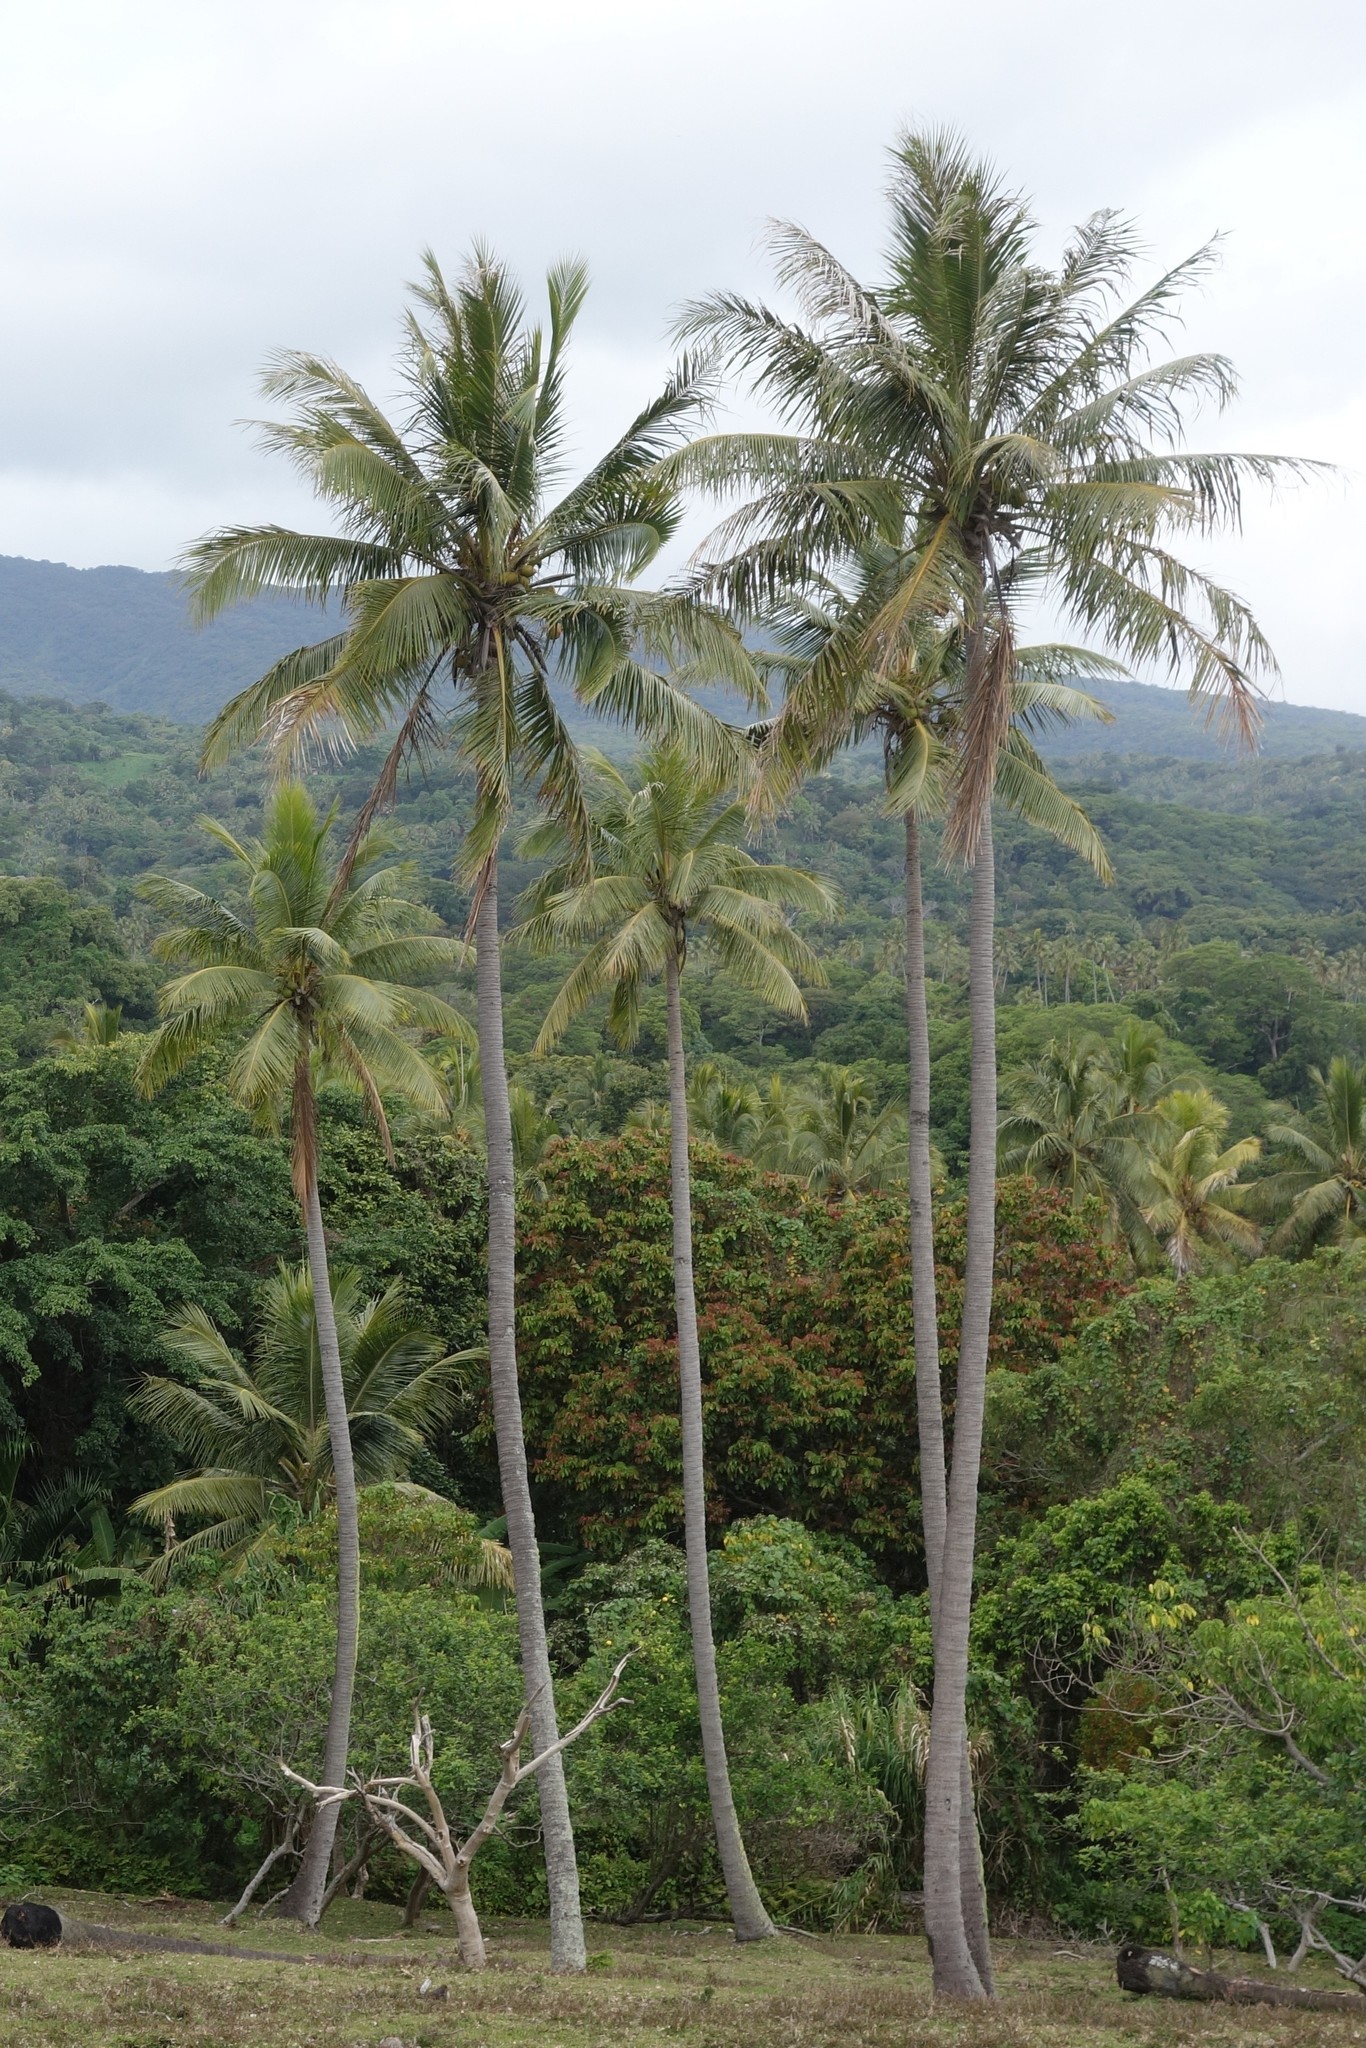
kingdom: Plantae
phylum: Tracheophyta
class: Liliopsida
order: Arecales
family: Arecaceae
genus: Cocos
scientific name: Cocos nucifera
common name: Coconut palm
